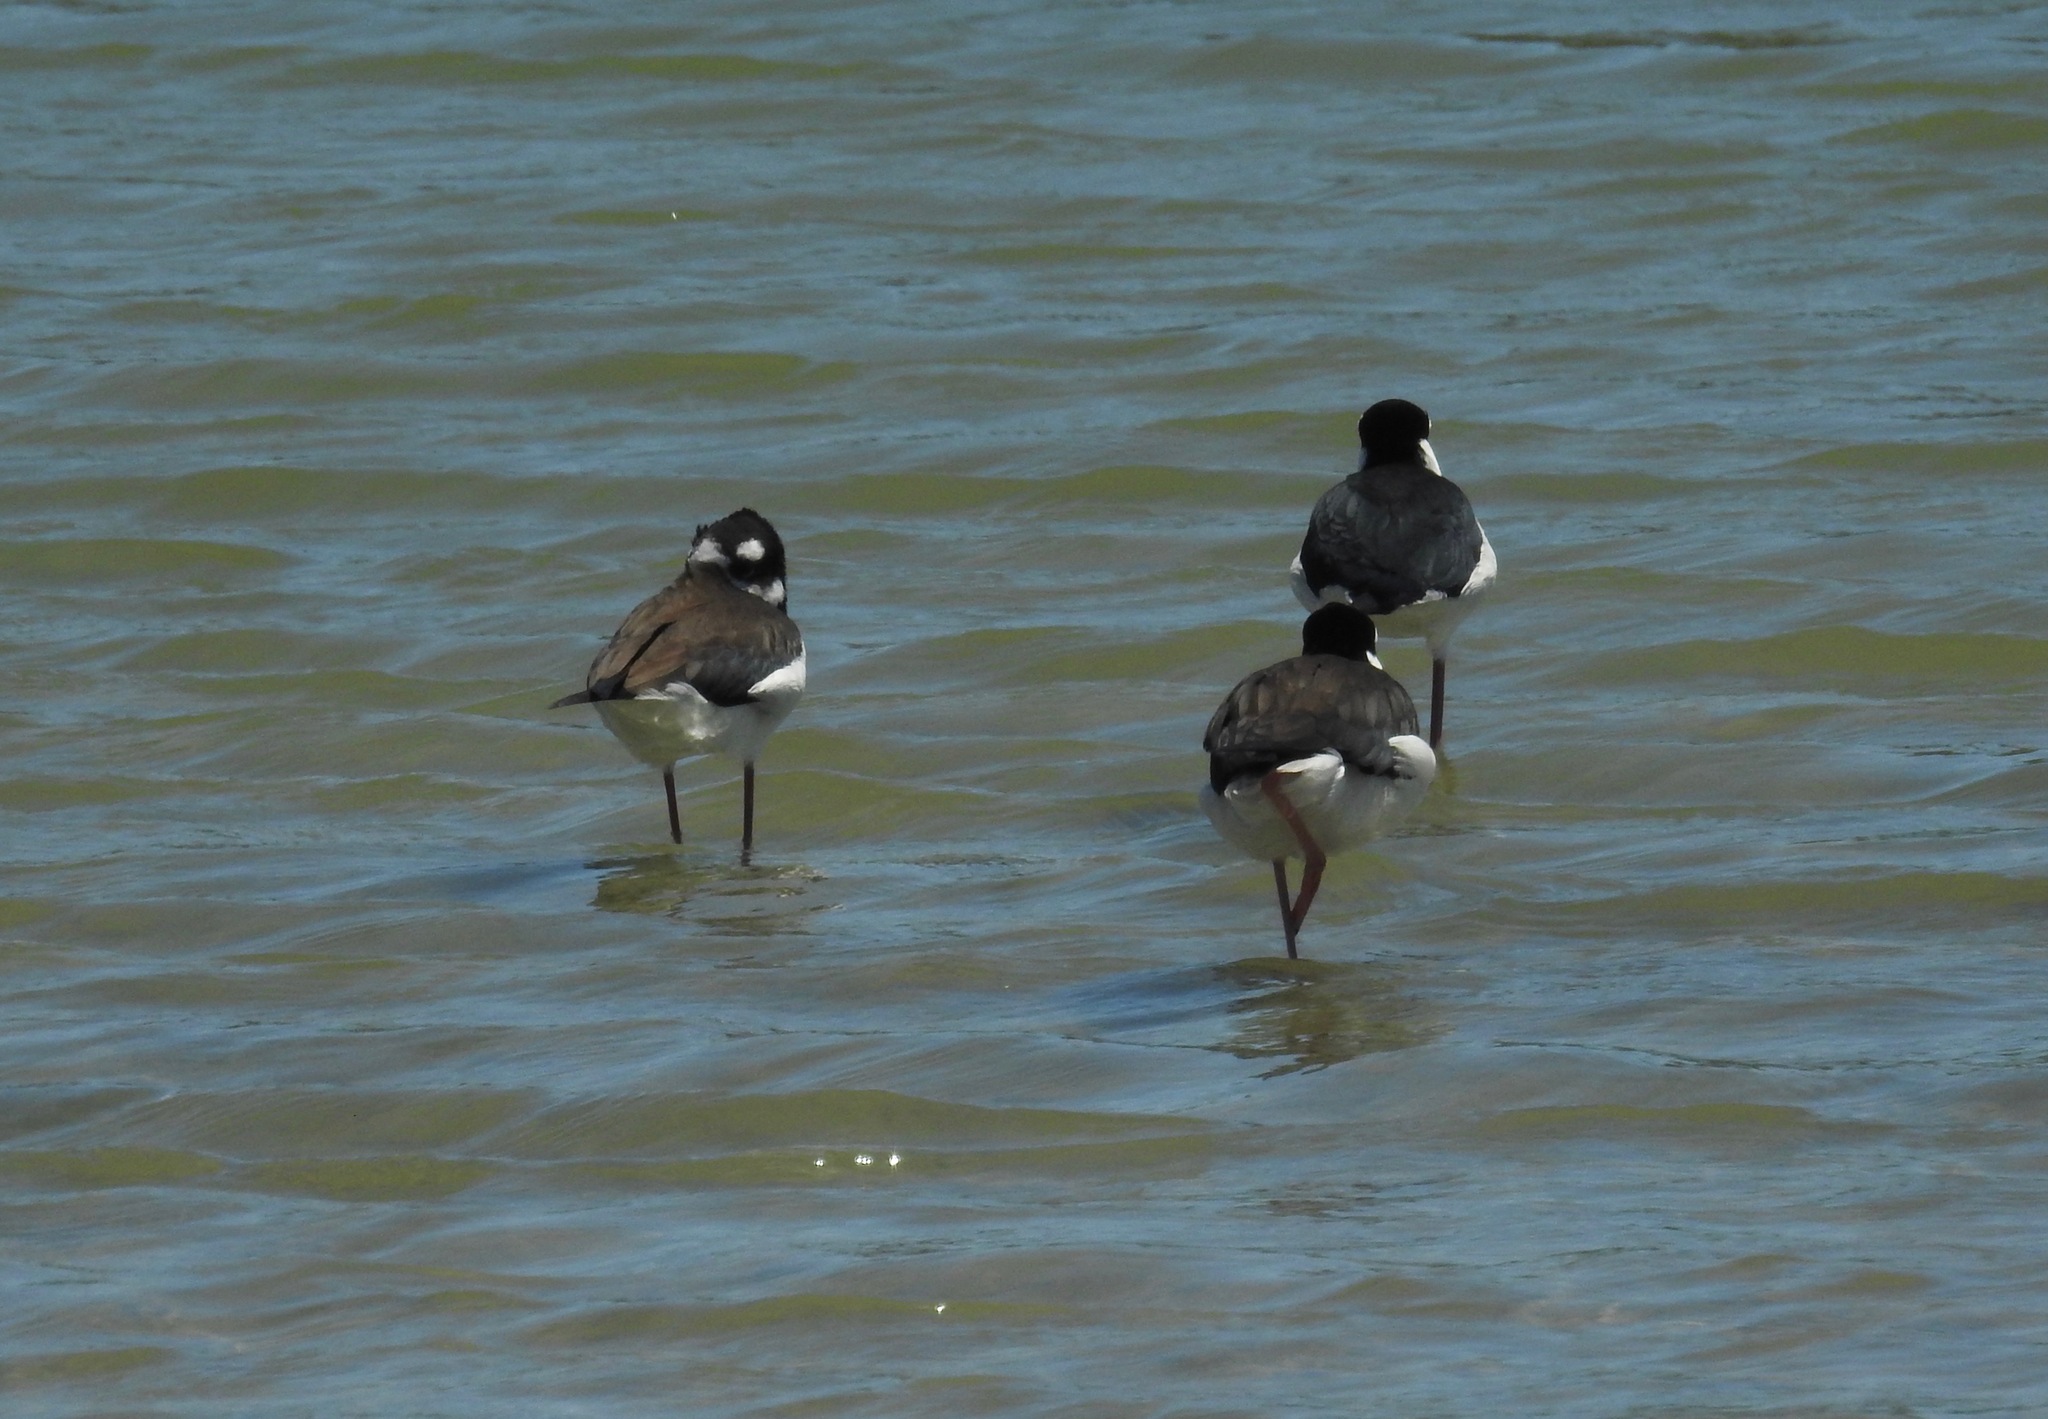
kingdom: Animalia
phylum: Chordata
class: Aves
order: Charadriiformes
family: Recurvirostridae
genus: Himantopus
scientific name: Himantopus mexicanus
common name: Black-necked stilt
